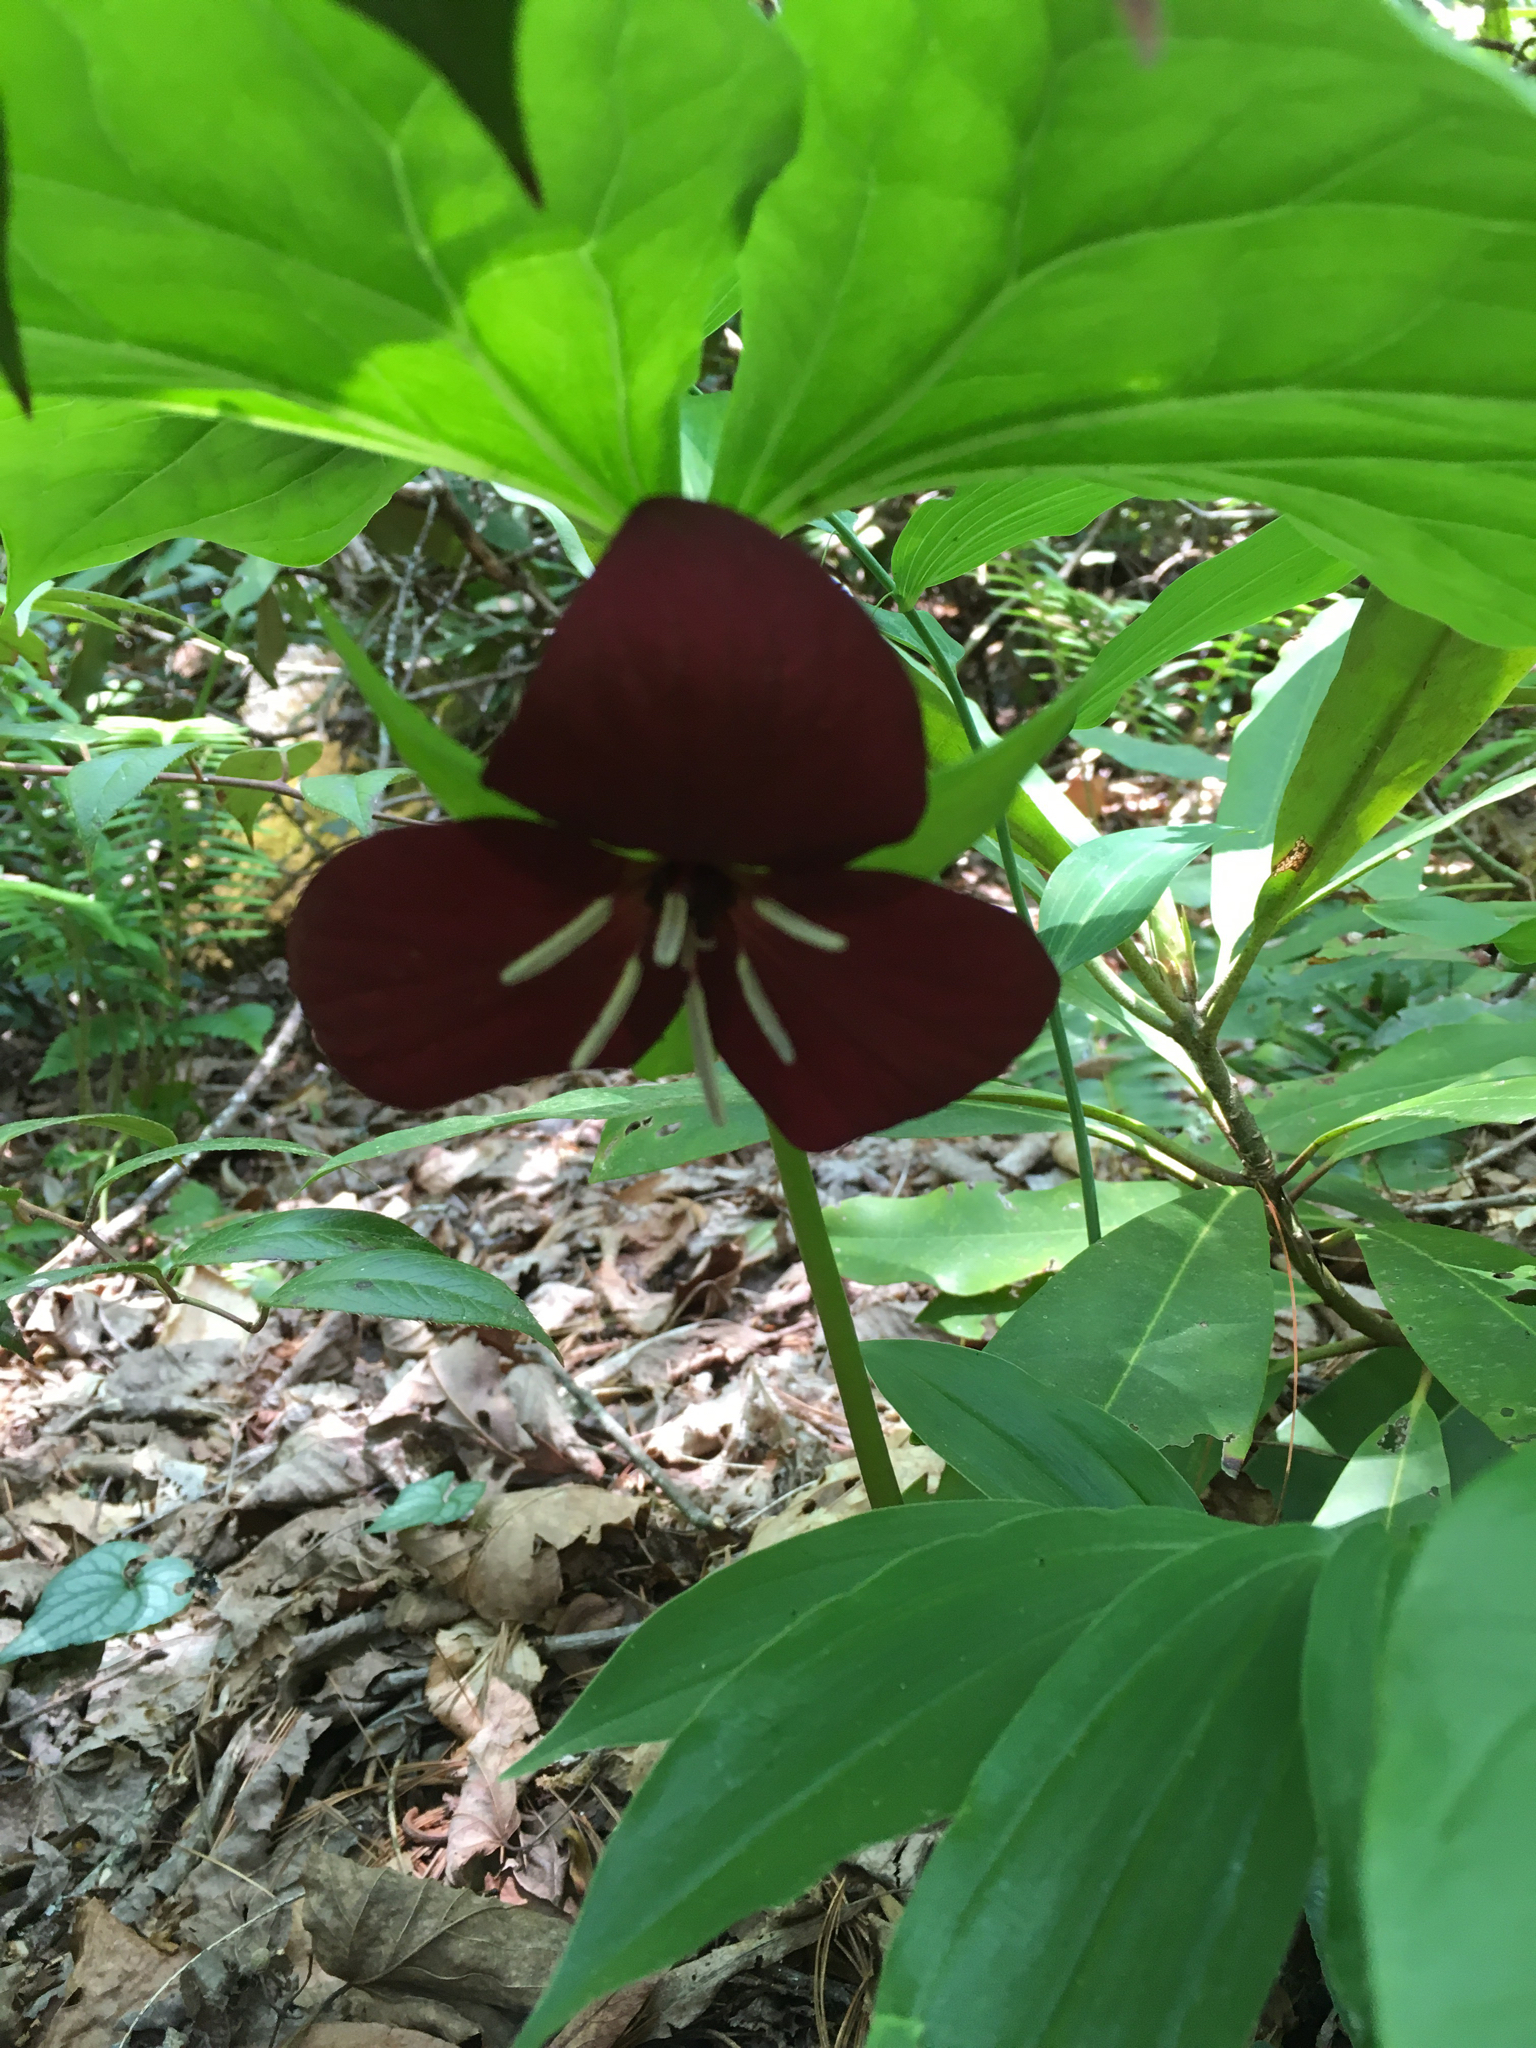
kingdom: Plantae
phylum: Tracheophyta
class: Liliopsida
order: Liliales
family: Melanthiaceae
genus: Trillium
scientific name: Trillium vaseyi
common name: Sweet trillium
